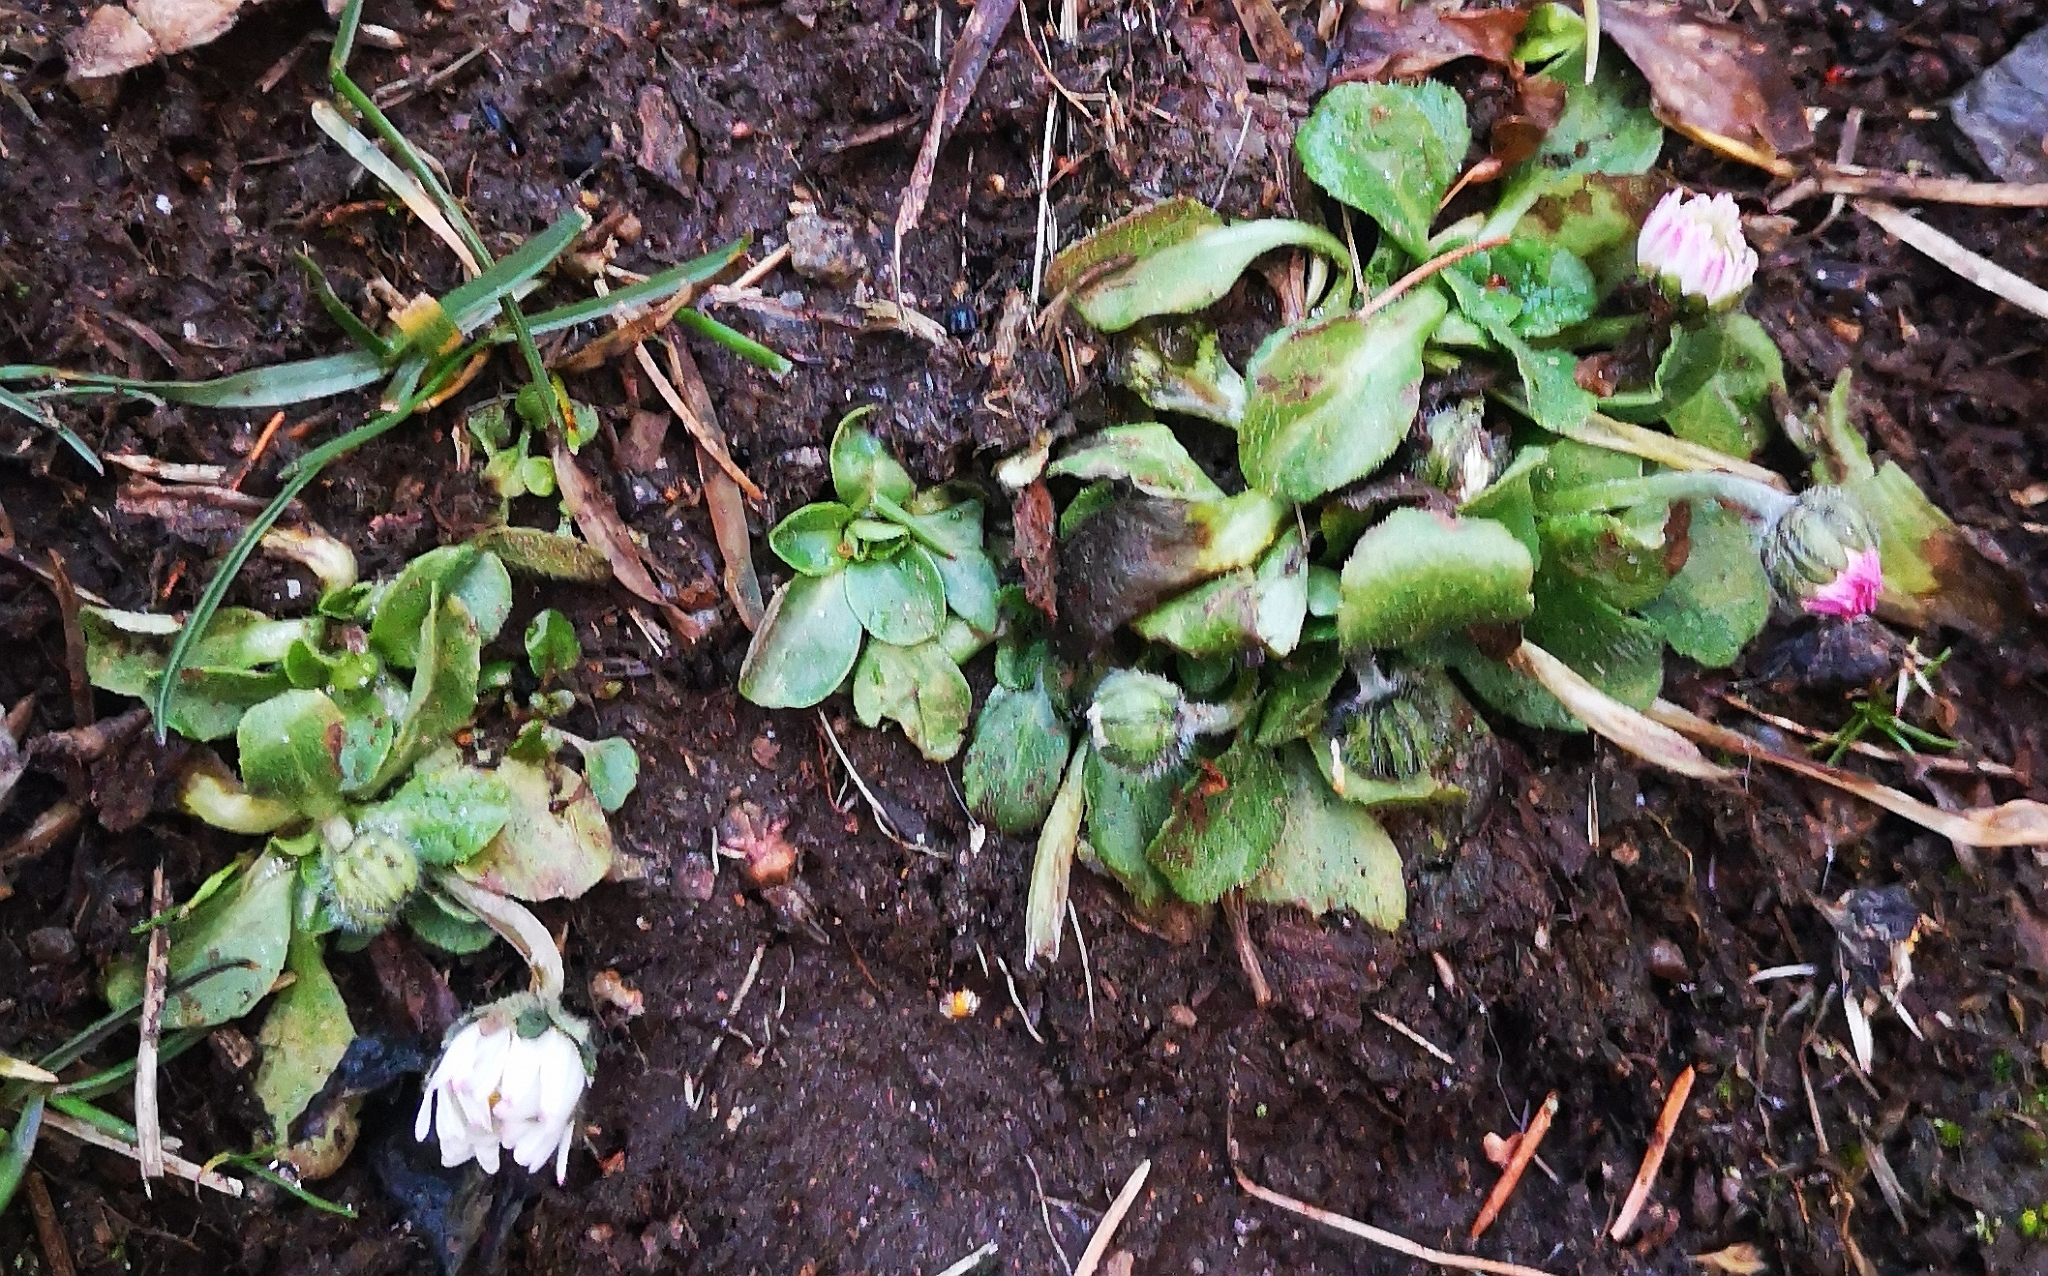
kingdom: Plantae
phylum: Tracheophyta
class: Magnoliopsida
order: Asterales
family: Asteraceae
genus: Bellis
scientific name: Bellis perennis
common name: Lawndaisy
